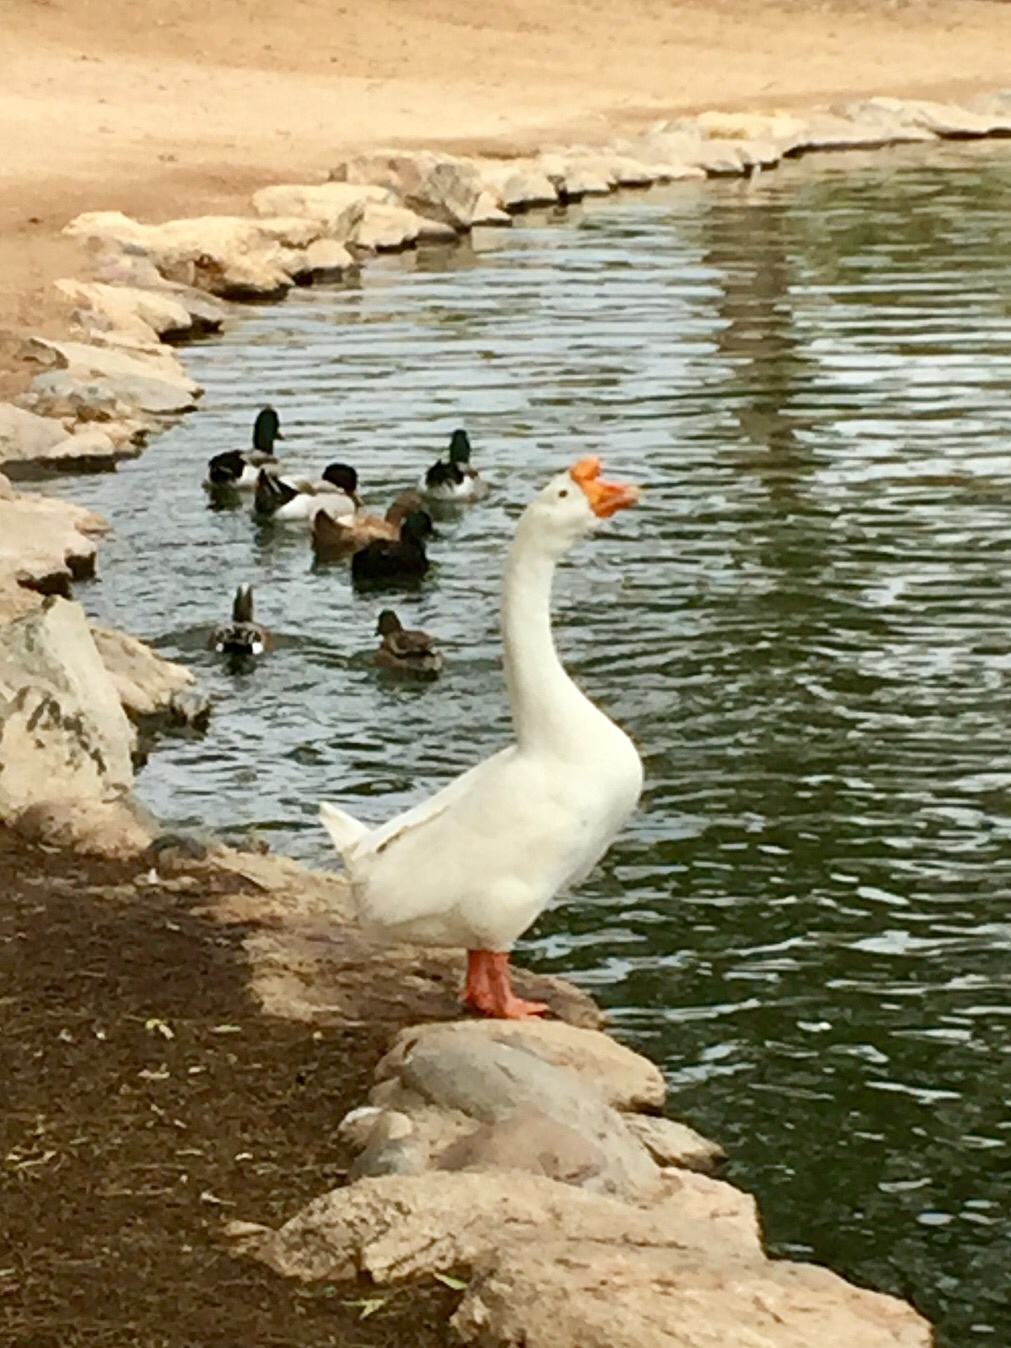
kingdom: Animalia
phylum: Chordata
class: Aves
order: Anseriformes
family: Anatidae
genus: Anser
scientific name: Anser cygnoides
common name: Swan goose
